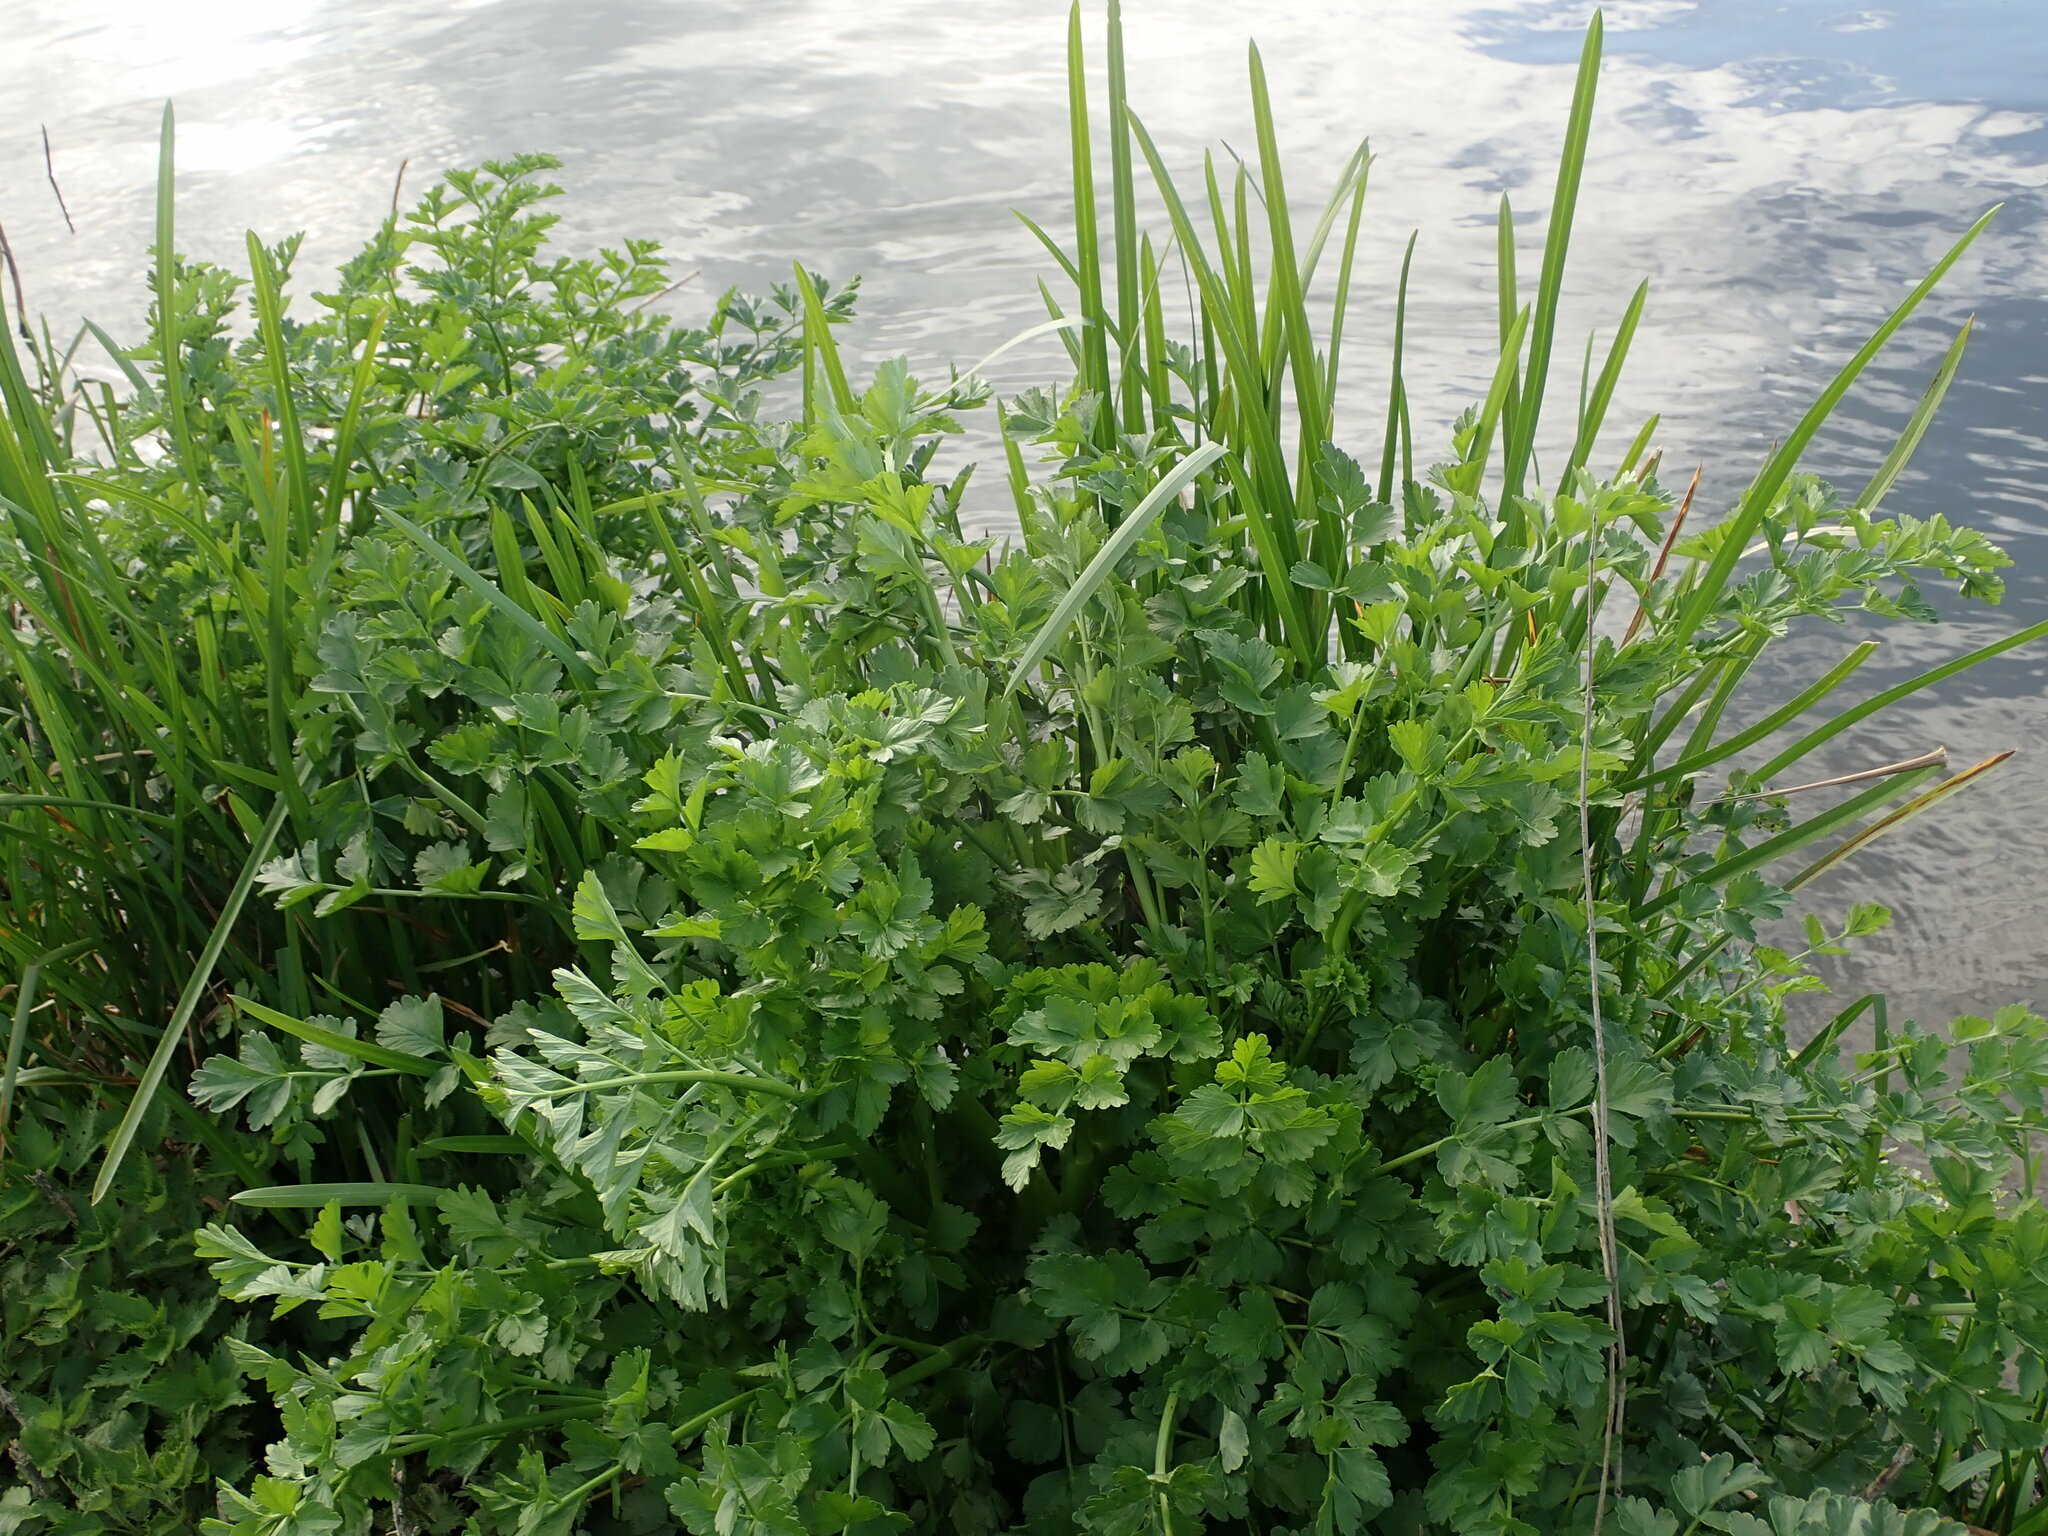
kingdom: Plantae
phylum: Tracheophyta
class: Magnoliopsida
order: Apiales
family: Apiaceae
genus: Oenanthe
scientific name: Oenanthe crocata
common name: Hemlock water-dropwort
